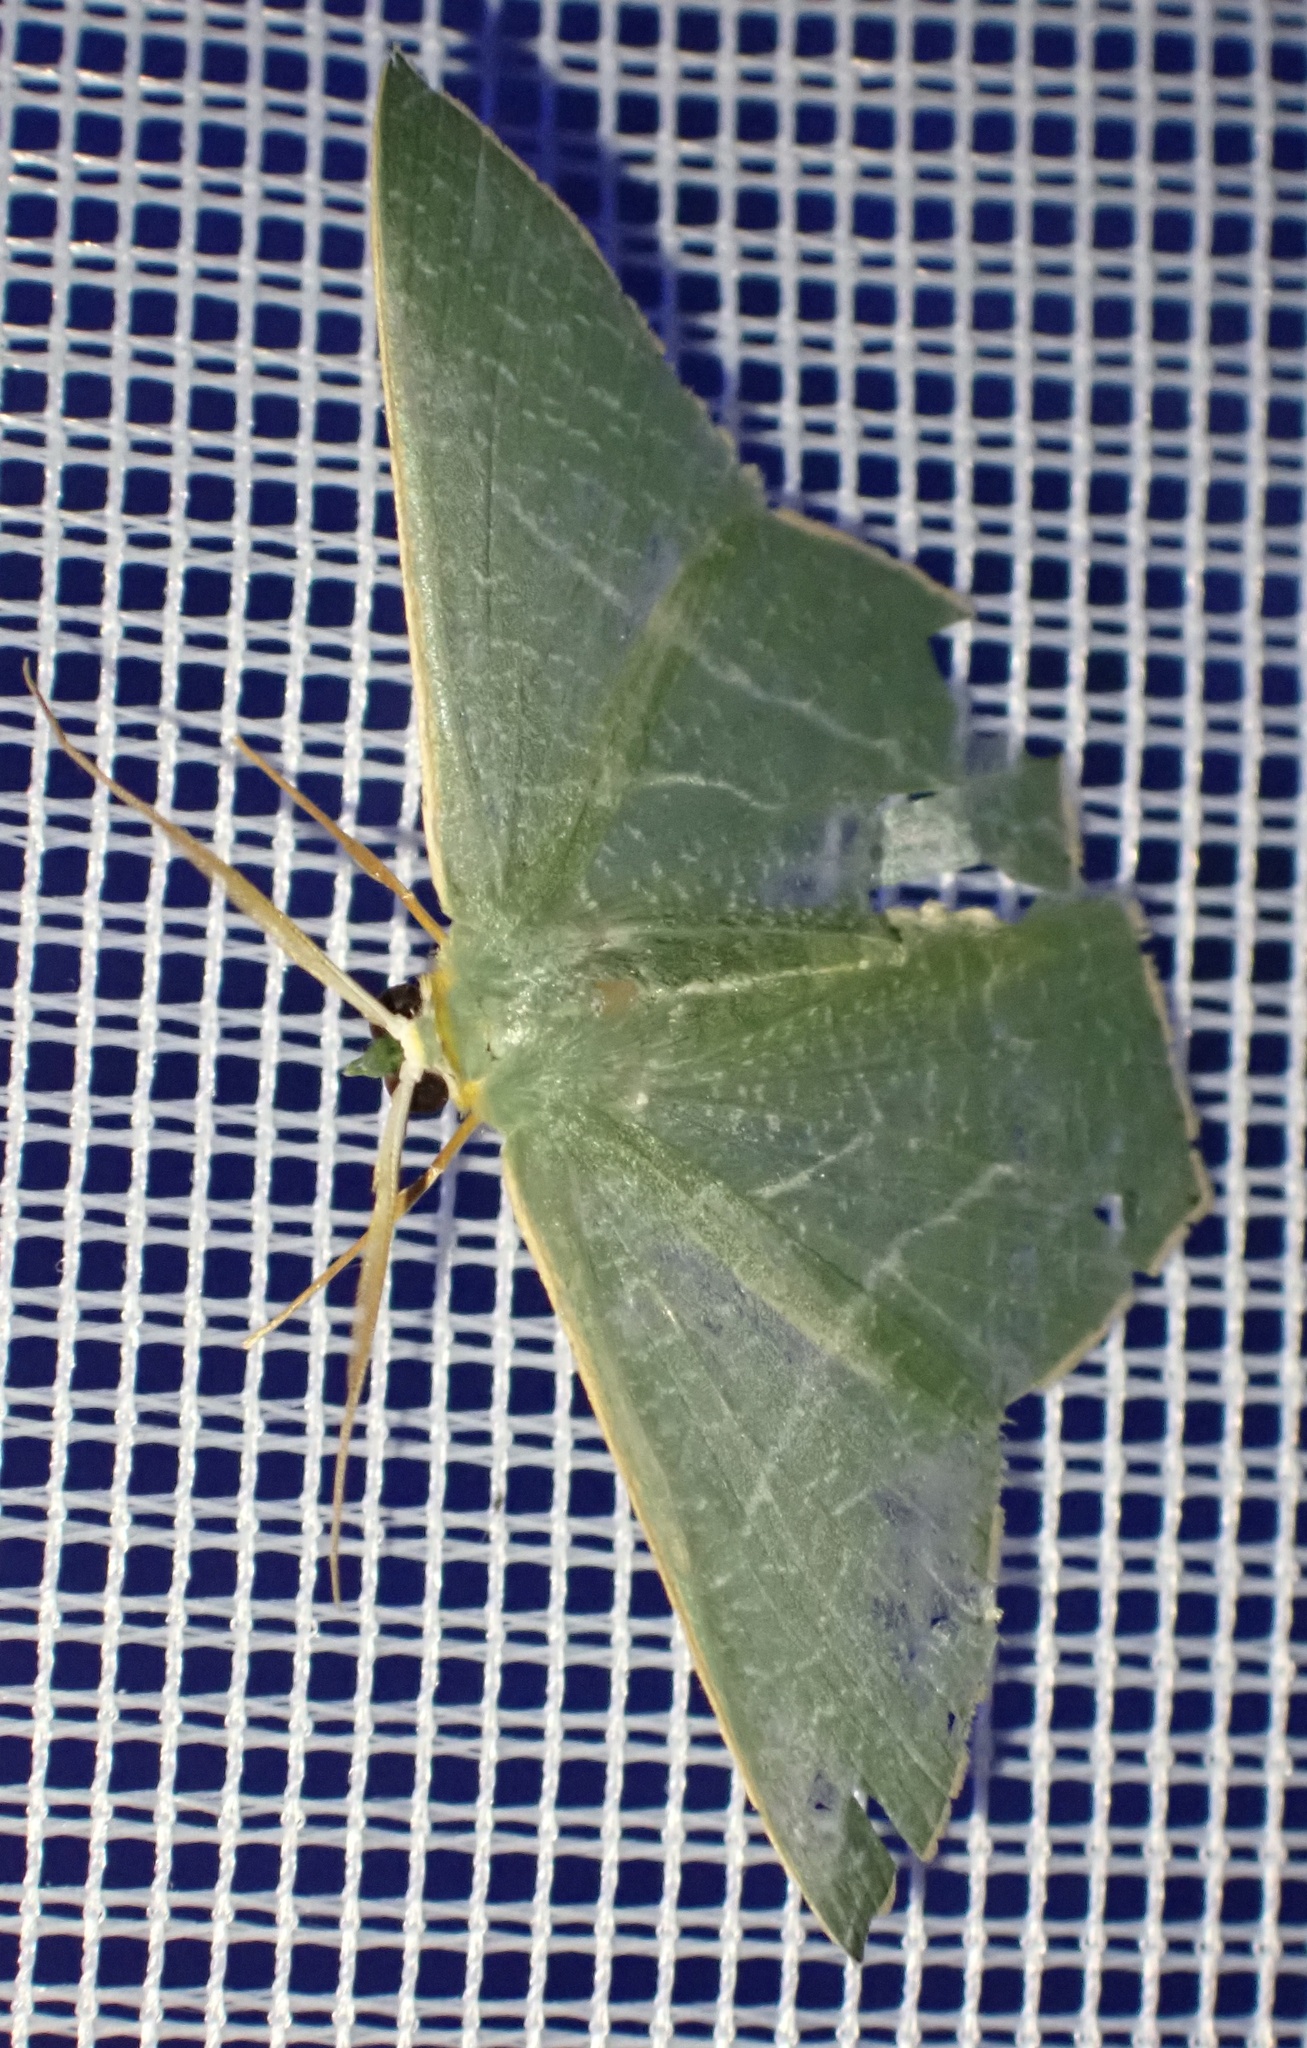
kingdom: Animalia
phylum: Arthropoda
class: Insecta
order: Lepidoptera
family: Geometridae
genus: Thalassodes
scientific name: Thalassodes dorsilinea
